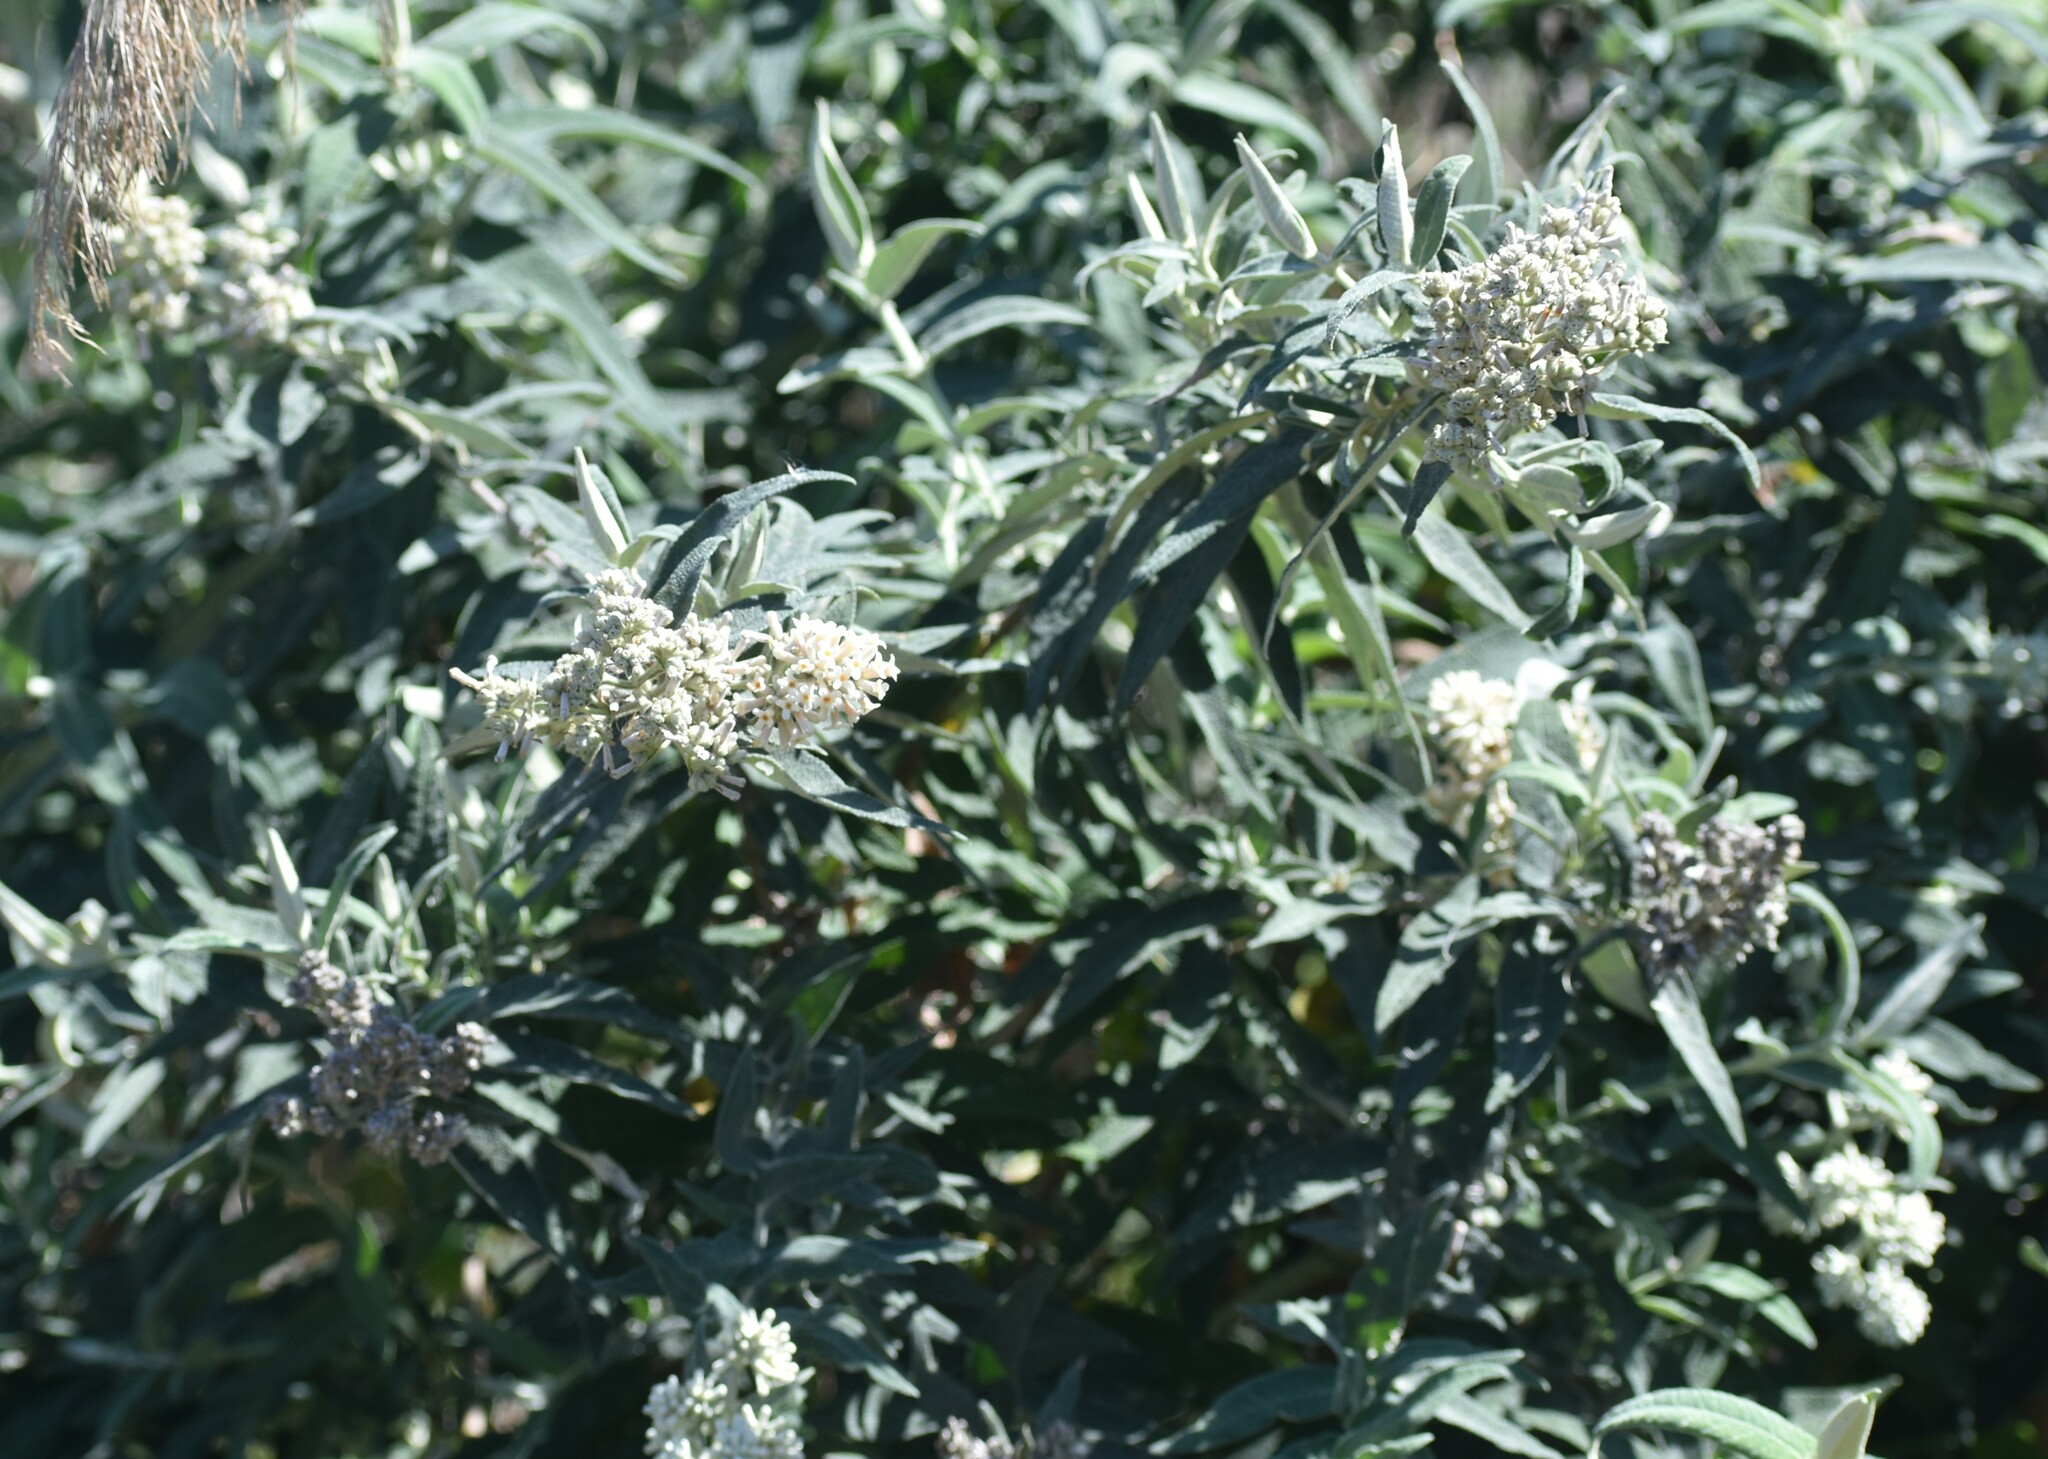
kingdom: Plantae
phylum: Tracheophyta
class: Magnoliopsida
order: Lamiales
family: Scrophulariaceae
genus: Buddleja
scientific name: Buddleja salviifolia
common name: Sagewood
